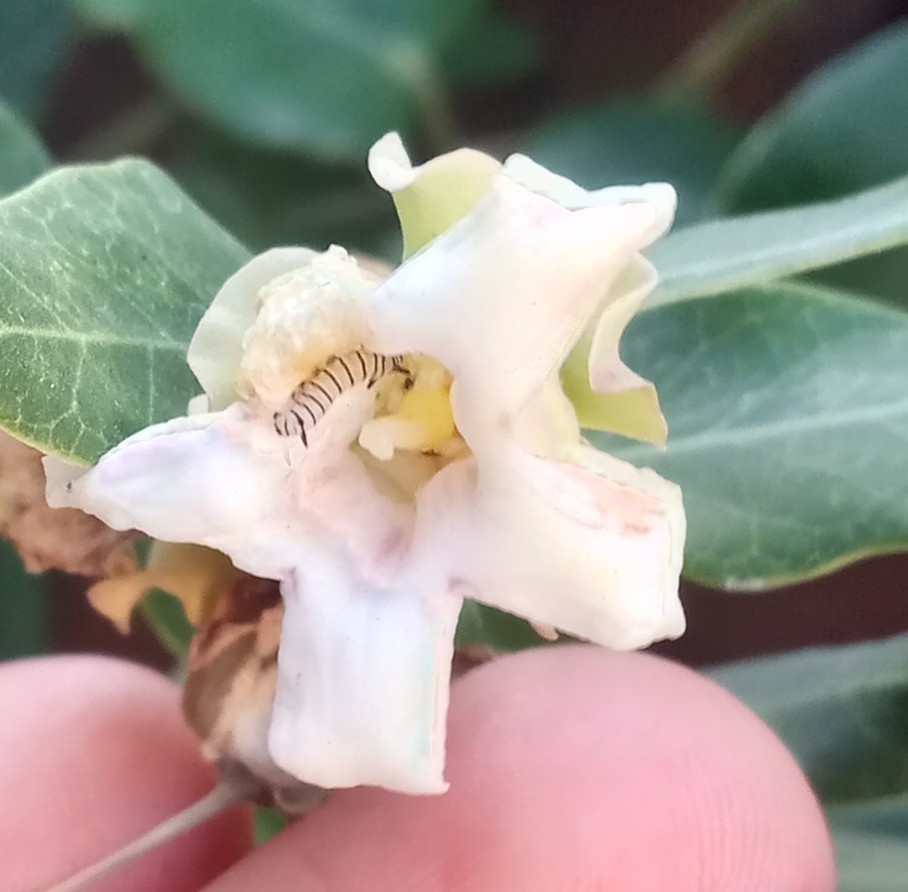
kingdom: Animalia
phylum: Arthropoda
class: Insecta
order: Lepidoptera
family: Nymphalidae
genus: Danaus
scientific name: Danaus erippus
